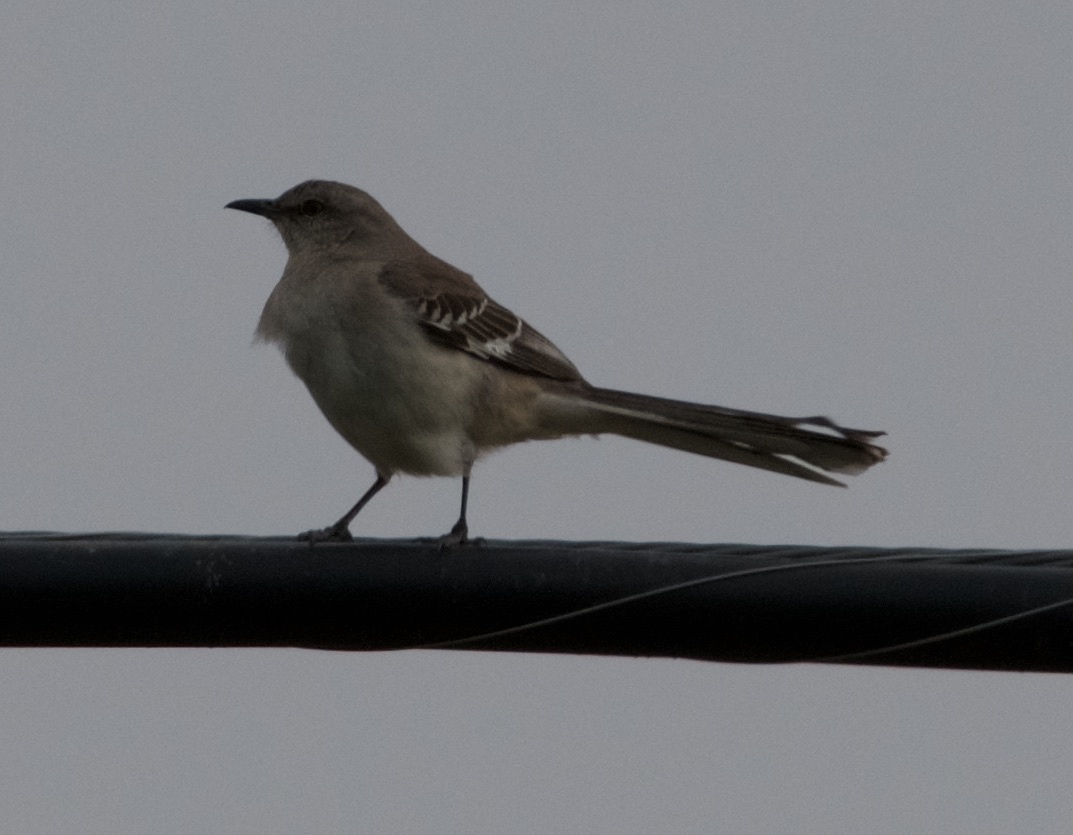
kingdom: Animalia
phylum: Chordata
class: Aves
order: Passeriformes
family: Mimidae
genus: Mimus
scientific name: Mimus polyglottos
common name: Northern mockingbird
